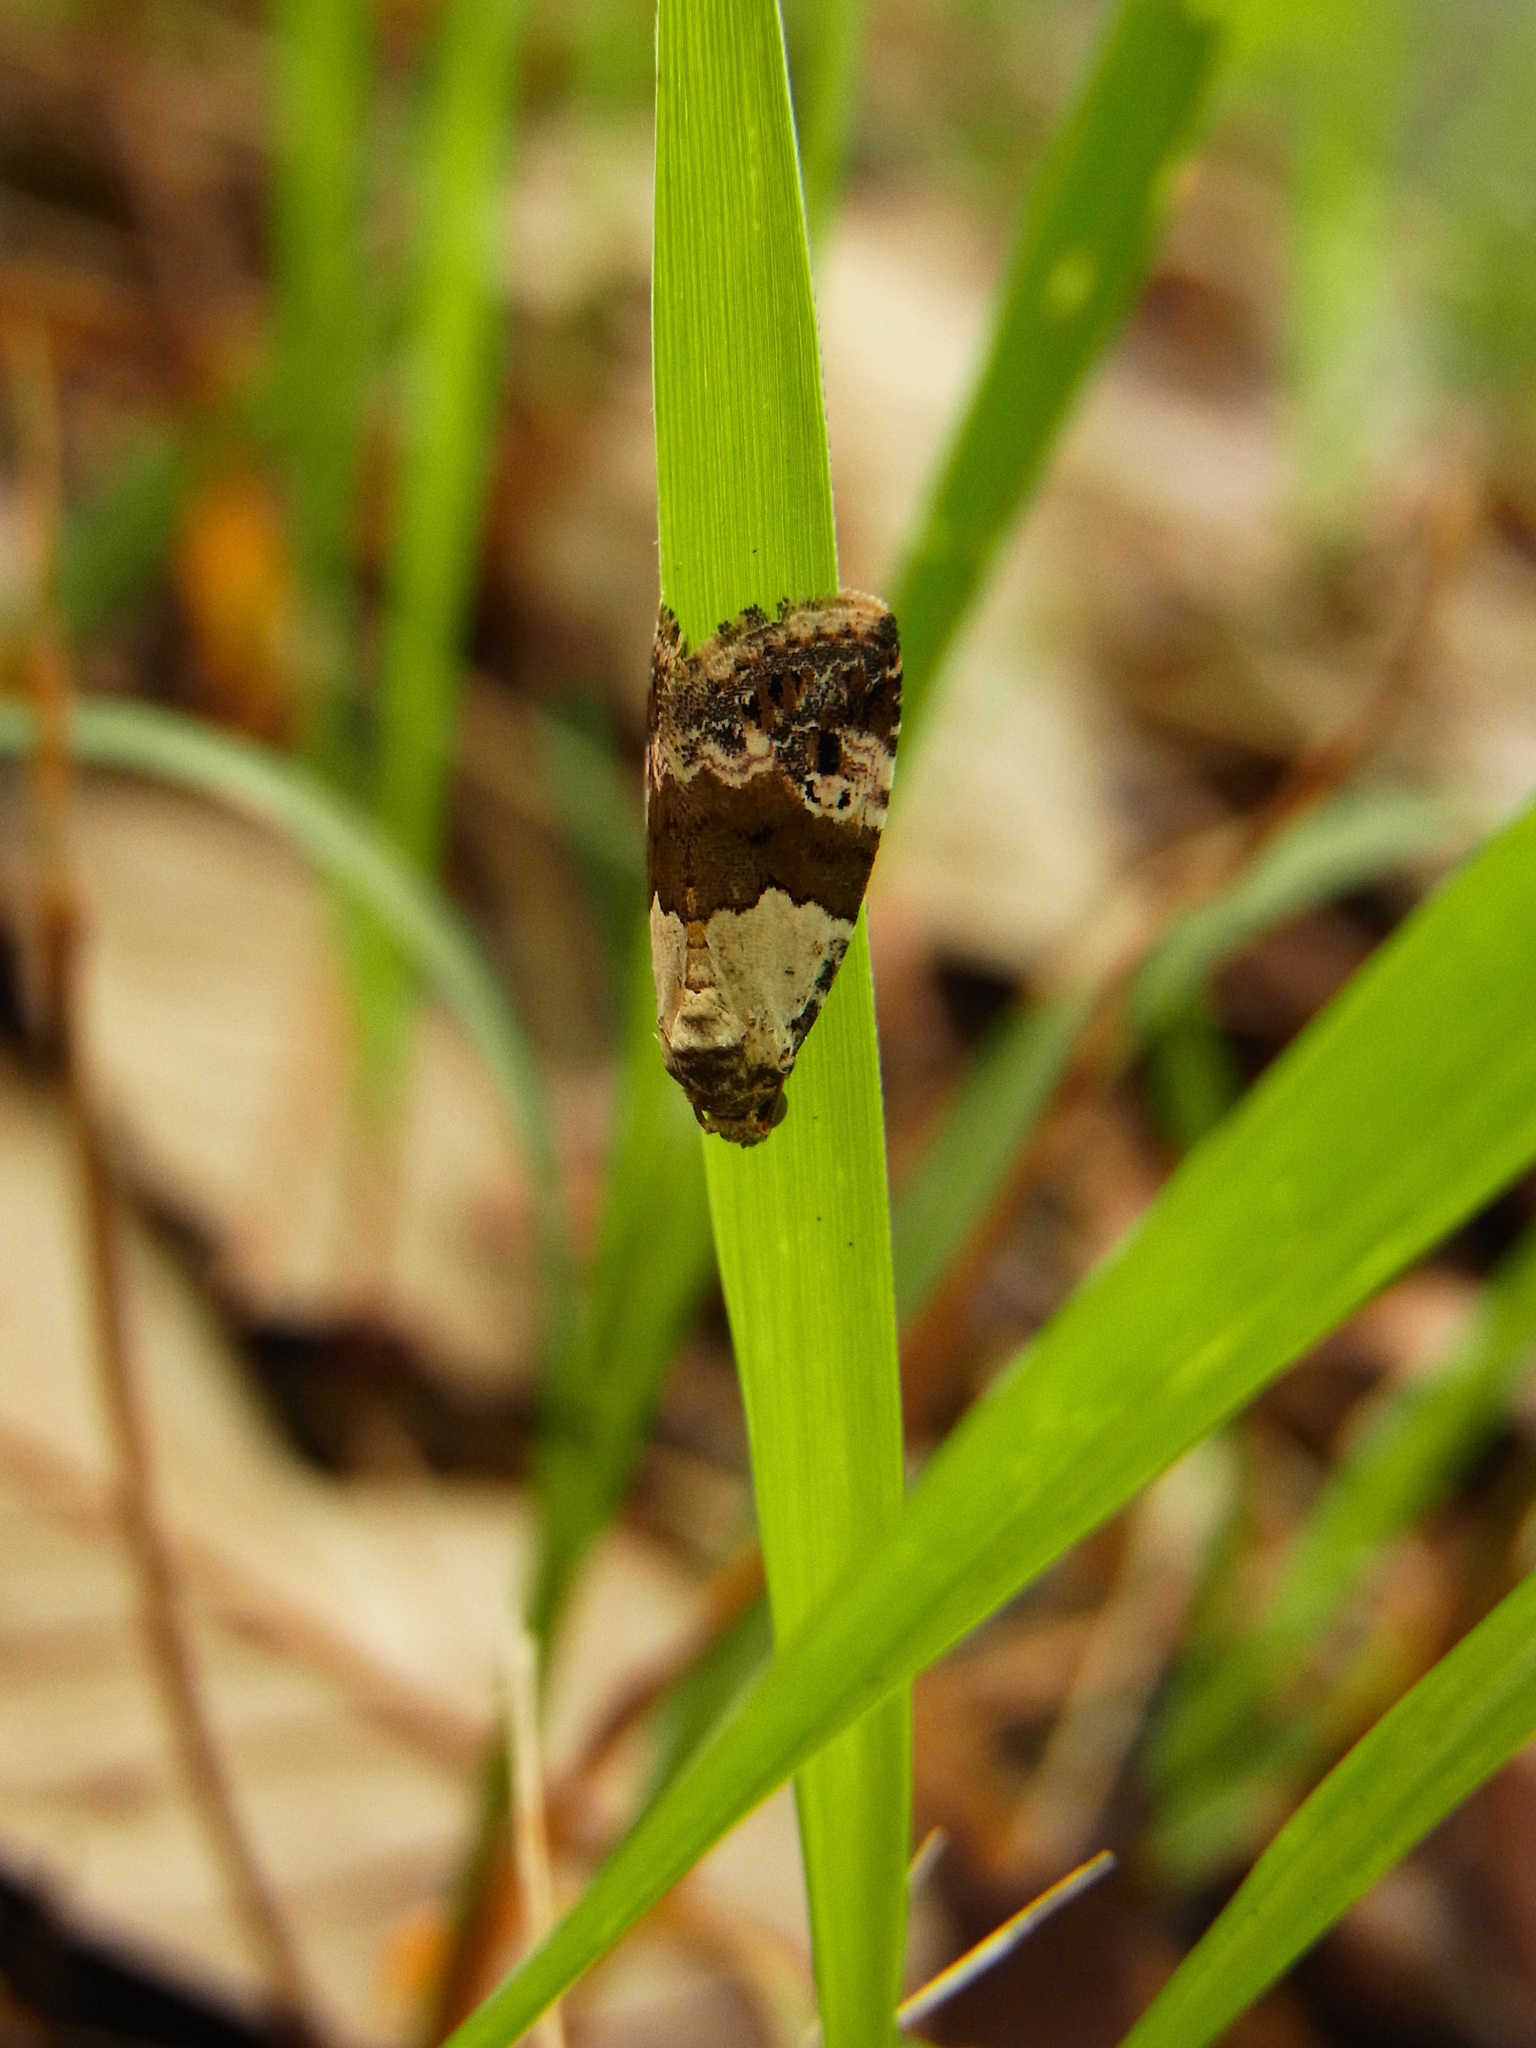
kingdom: Animalia
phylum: Arthropoda
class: Insecta
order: Lepidoptera
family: Noctuidae
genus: Maliattha
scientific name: Maliattha signifera
